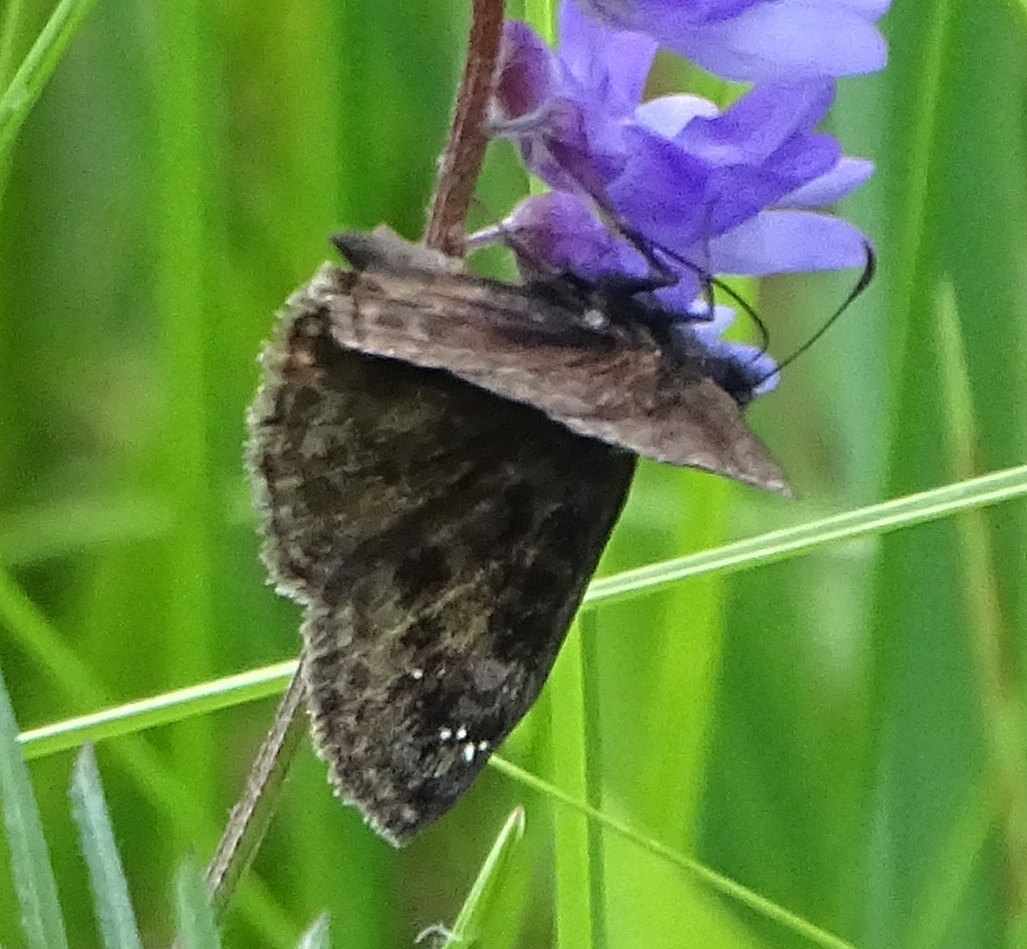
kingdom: Animalia
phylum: Arthropoda
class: Insecta
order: Lepidoptera
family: Hesperiidae
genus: Erynnis
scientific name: Erynnis baptisiae
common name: Wild indigo duskywing
